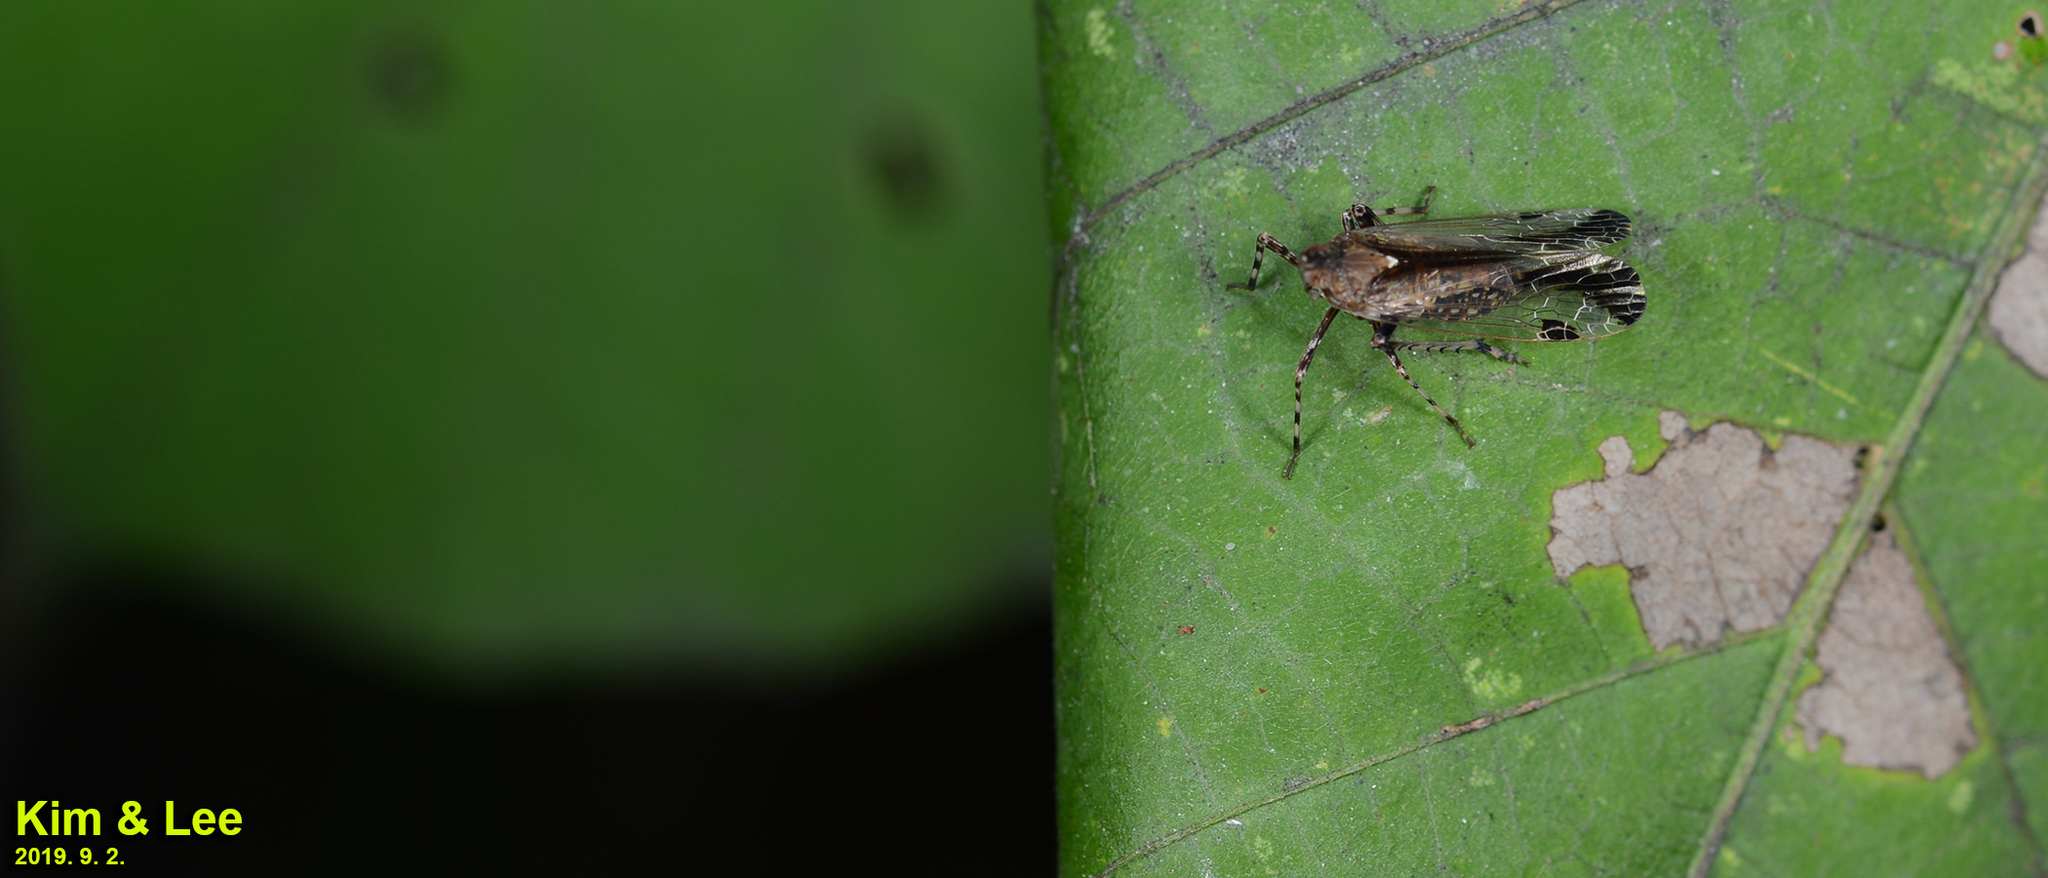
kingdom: Animalia
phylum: Arthropoda
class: Insecta
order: Hemiptera
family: Dictyopharidae
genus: Orthopagus
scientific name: Orthopagus lunulifer
